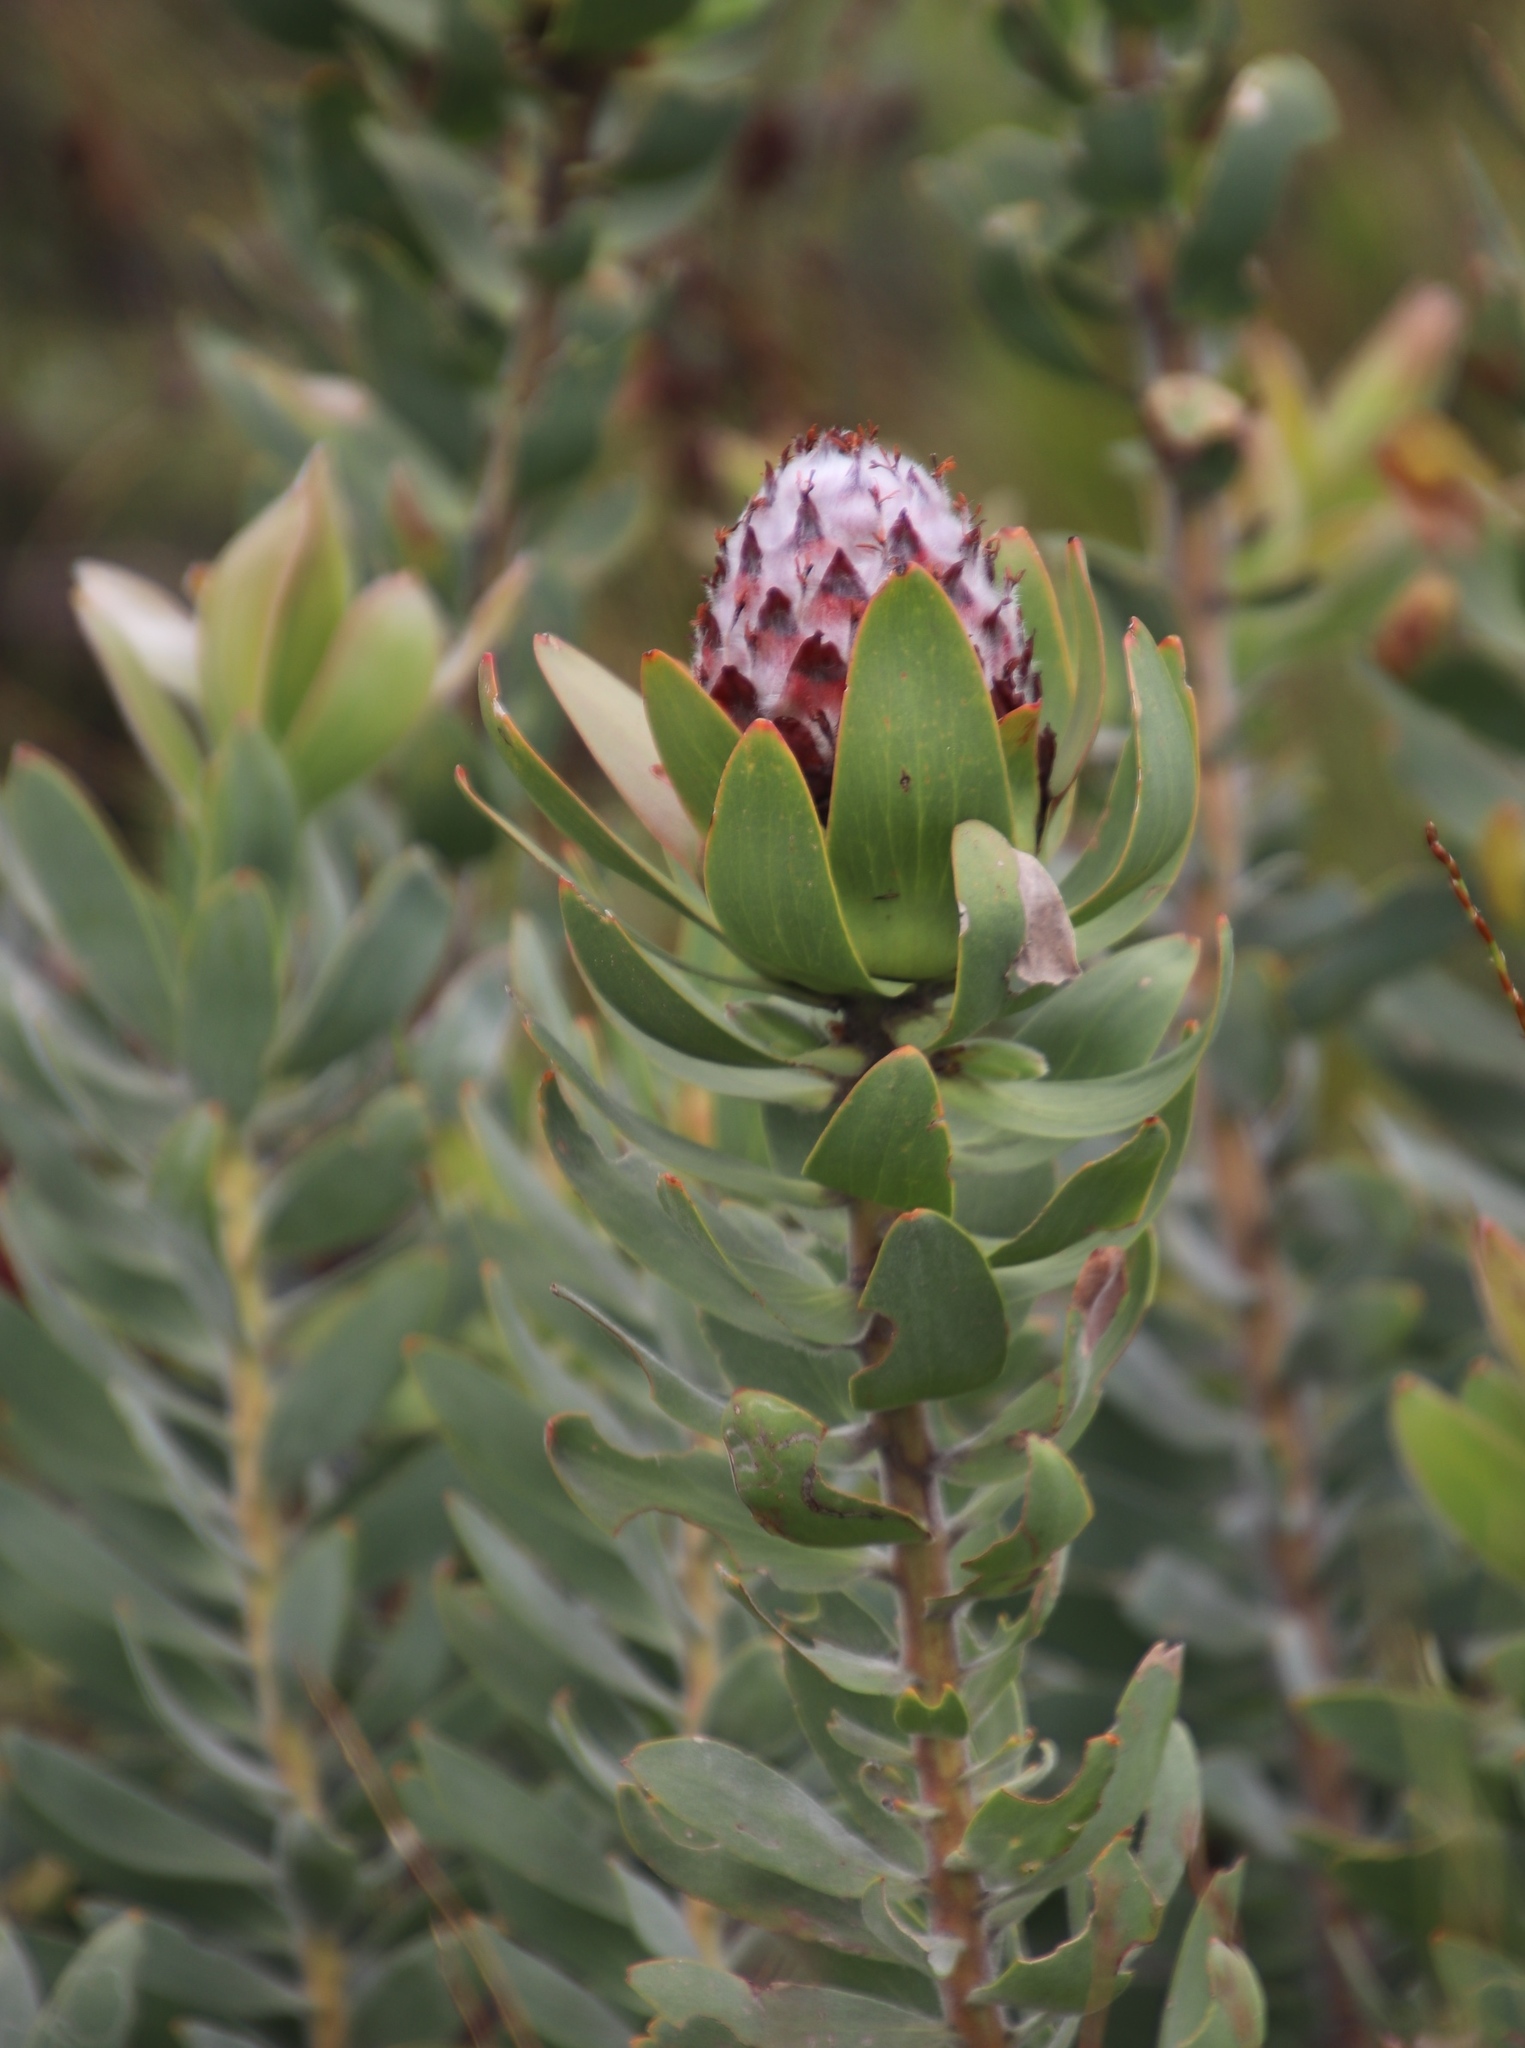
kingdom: Plantae
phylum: Tracheophyta
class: Magnoliopsida
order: Proteales
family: Proteaceae
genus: Leucadendron
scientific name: Leucadendron daphnoides
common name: Du toit's kloof conebush
